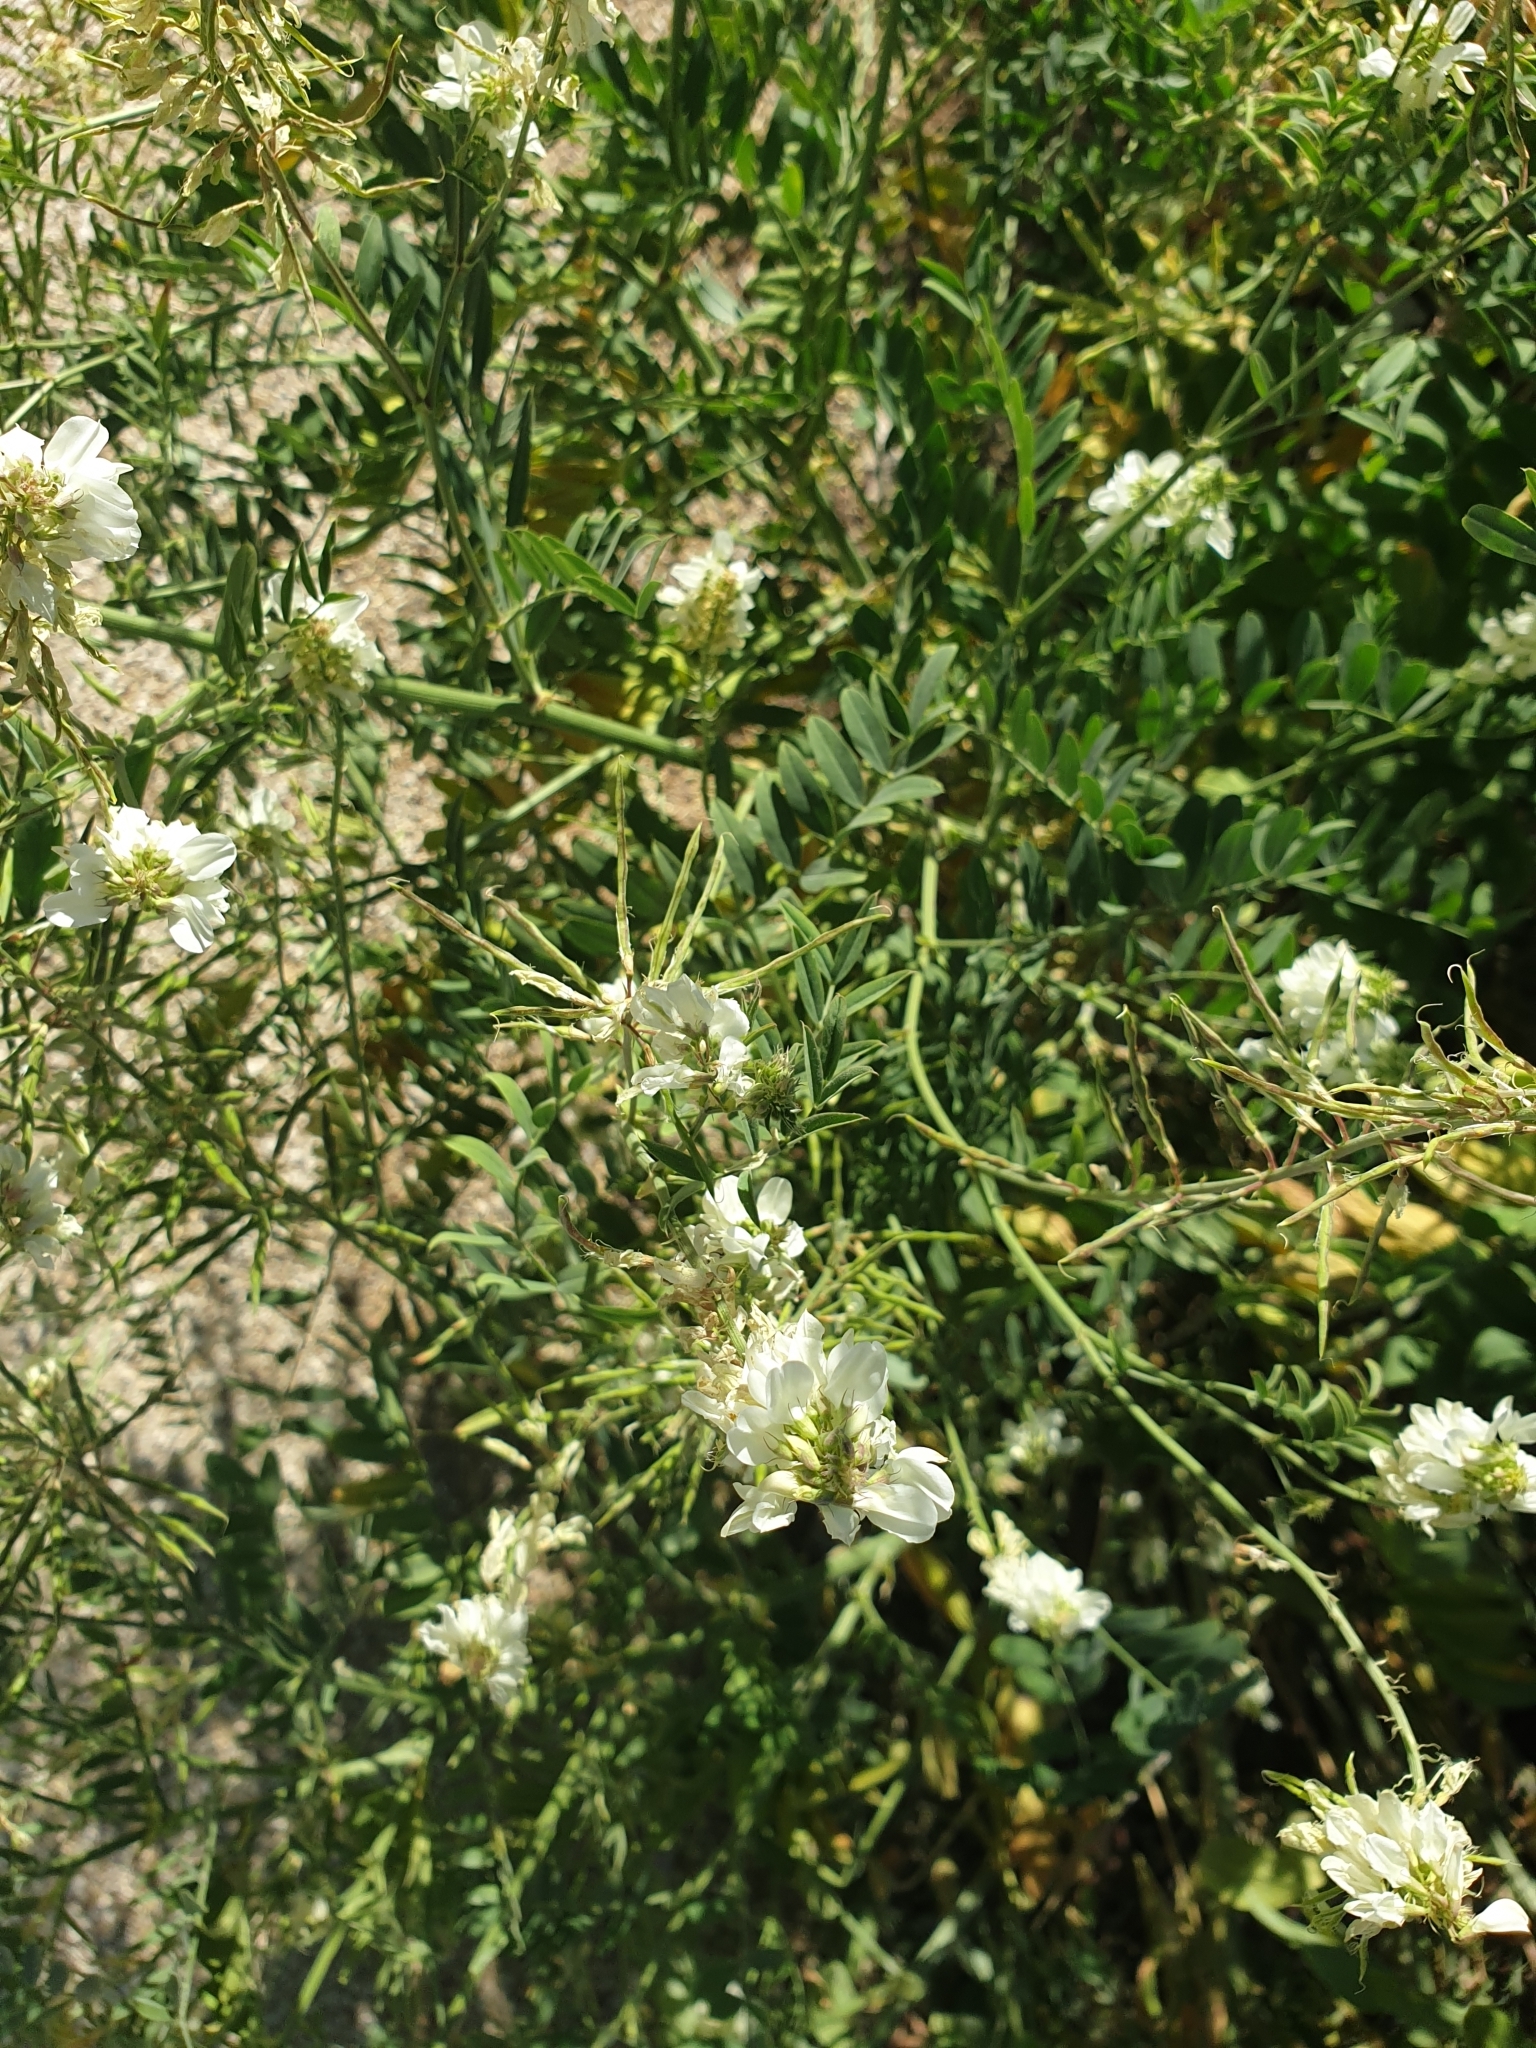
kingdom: Plantae
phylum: Tracheophyta
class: Magnoliopsida
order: Fabales
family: Fabaceae
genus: Galega
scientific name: Galega officinalis
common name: Goat's-rue
